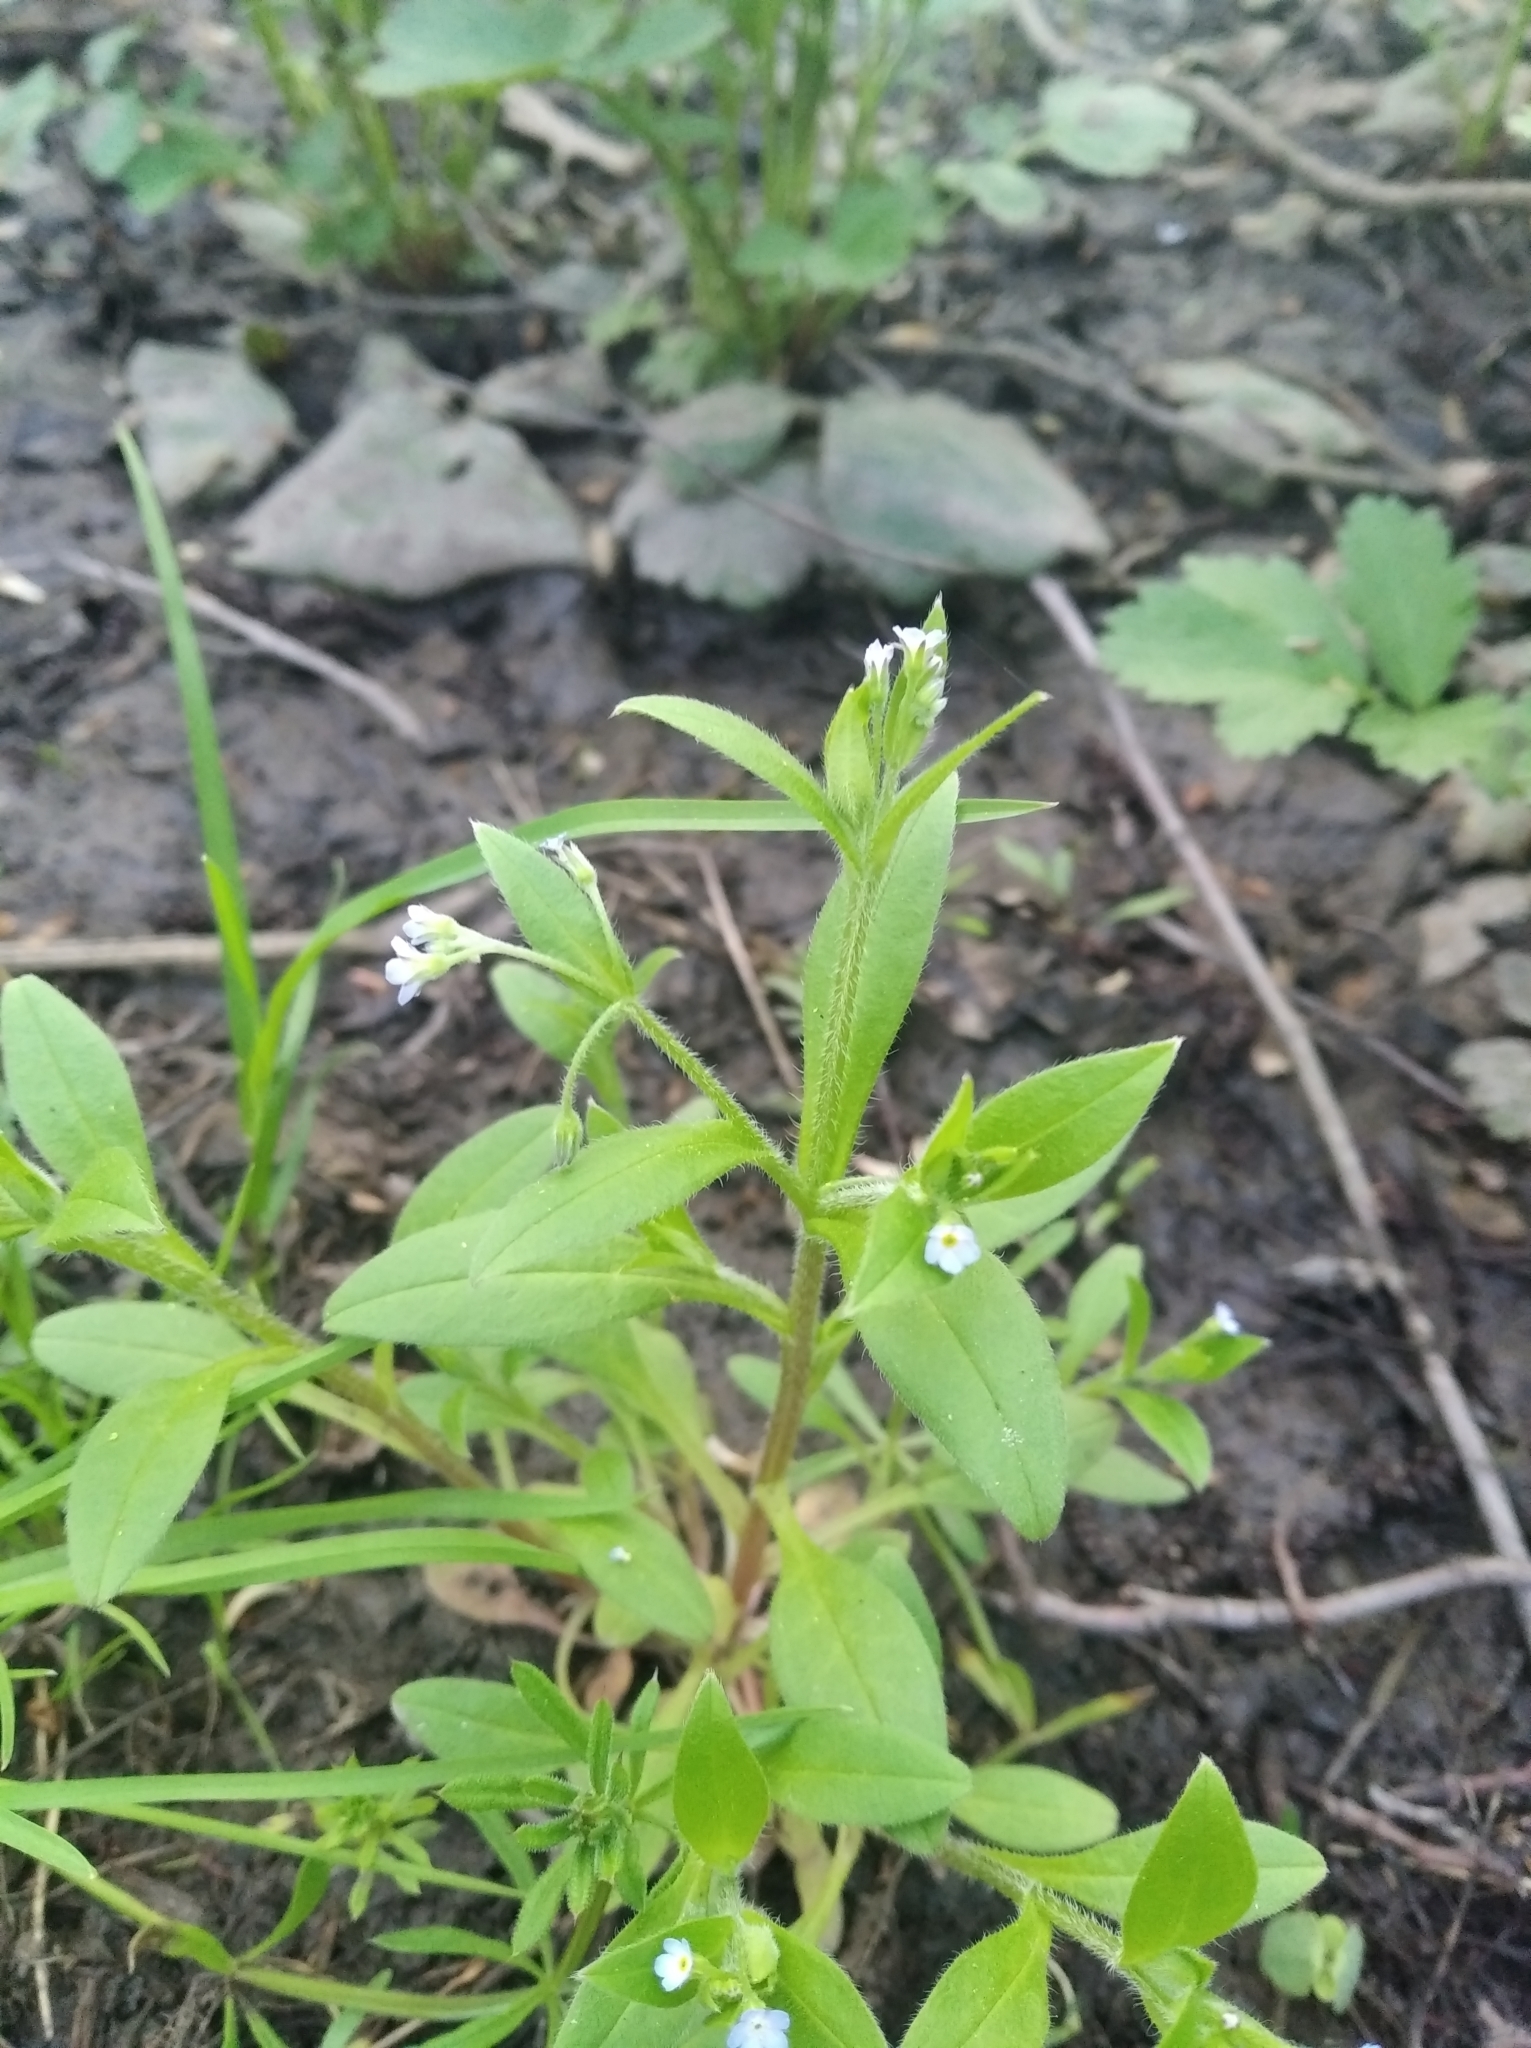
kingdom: Plantae
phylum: Tracheophyta
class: Magnoliopsida
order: Boraginales
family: Boraginaceae
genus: Myosotis
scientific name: Myosotis sparsiflora
